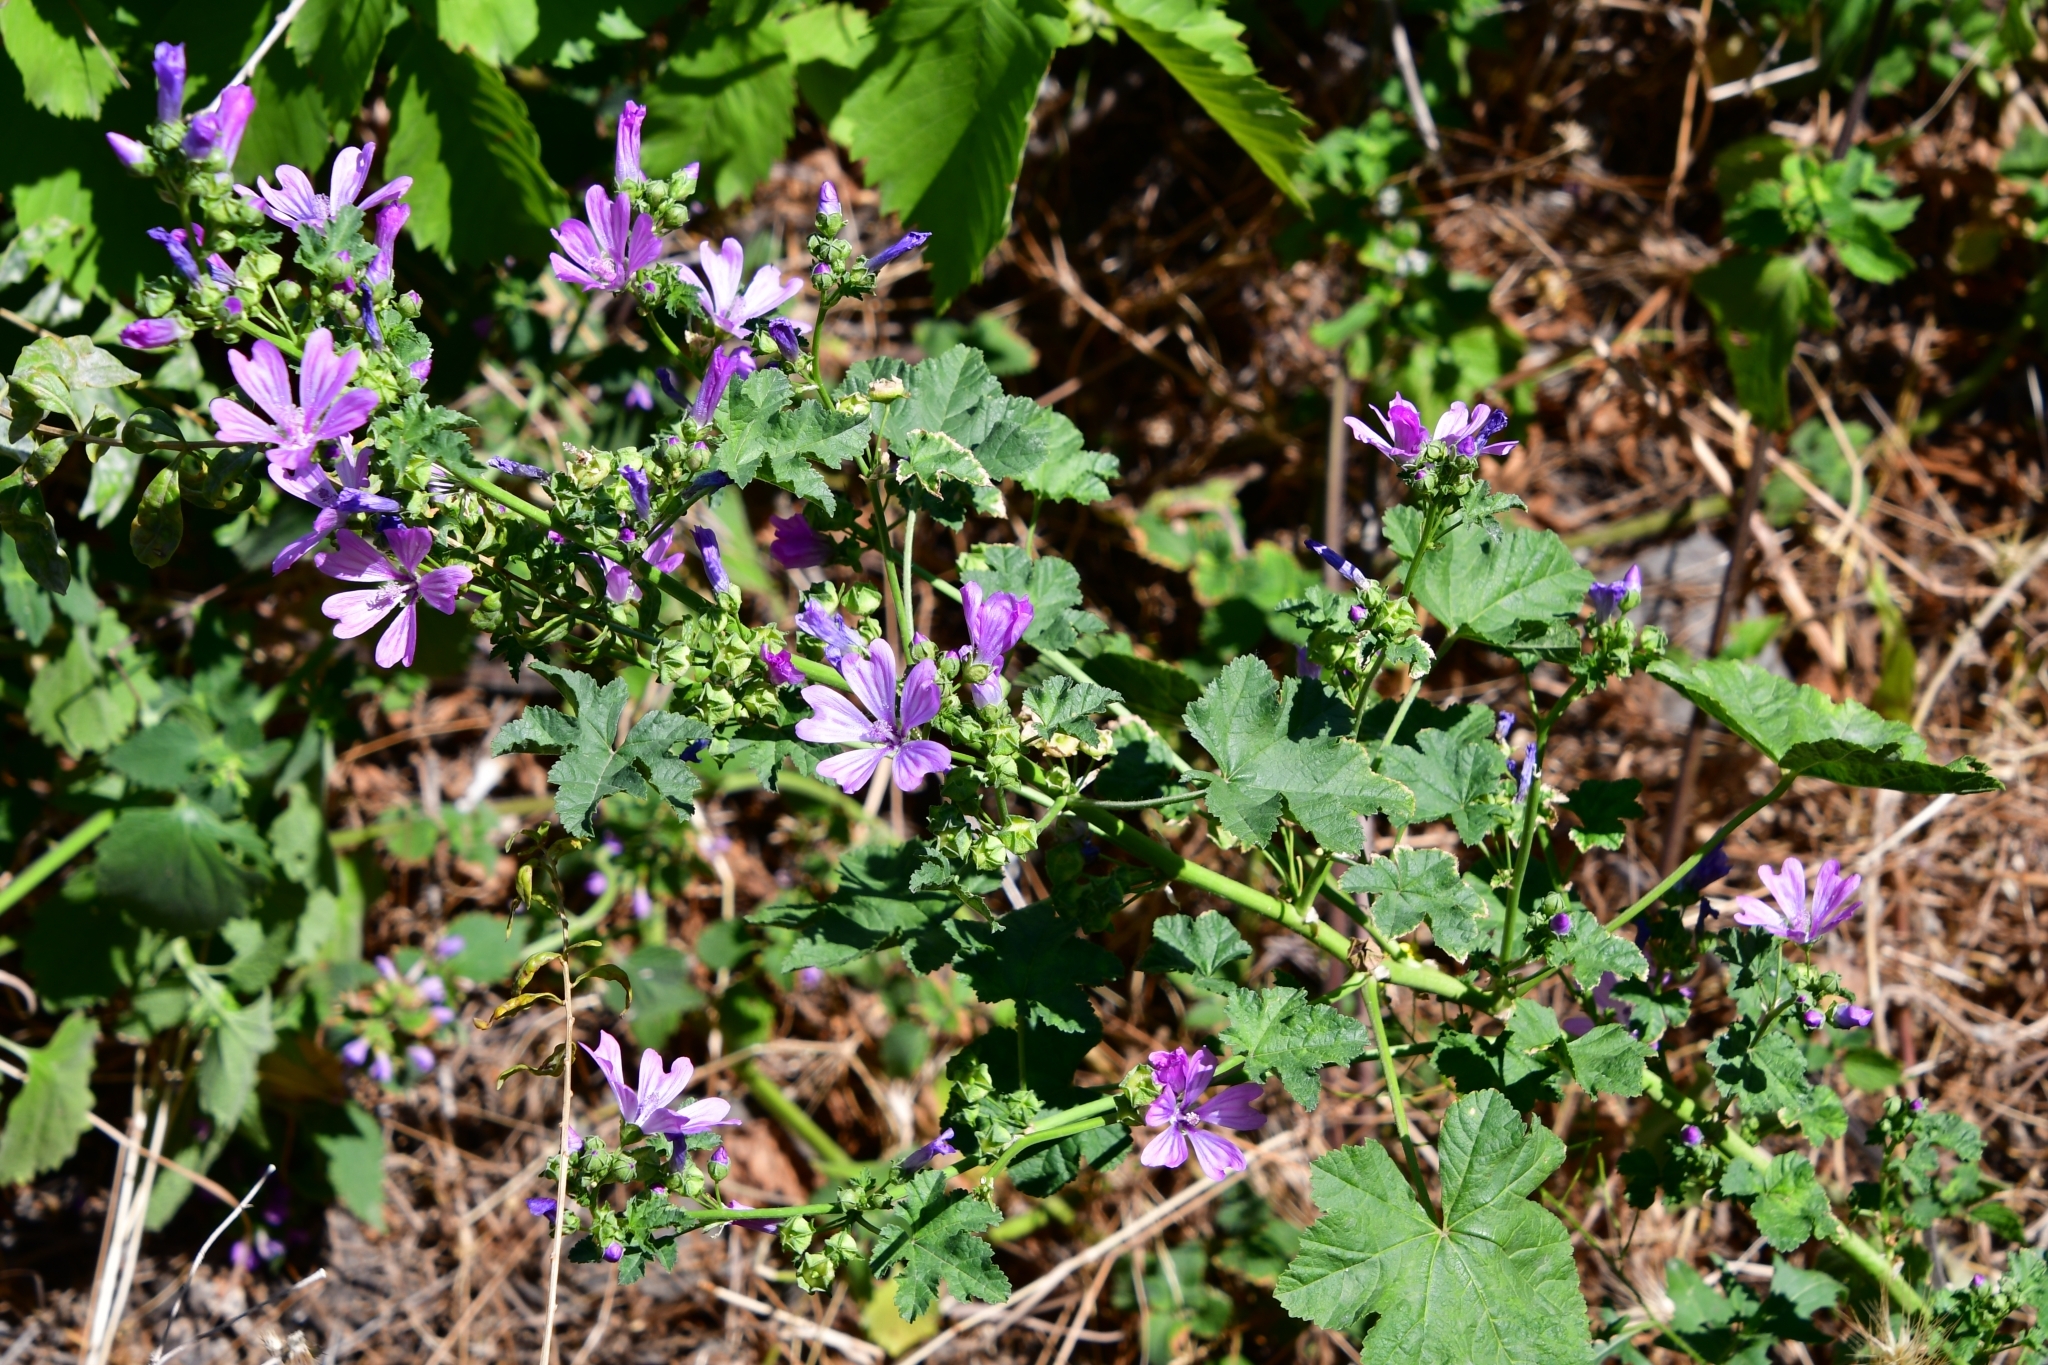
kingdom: Plantae
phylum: Tracheophyta
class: Magnoliopsida
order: Malvales
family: Malvaceae
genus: Malva
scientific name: Malva sylvestris
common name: Common mallow
